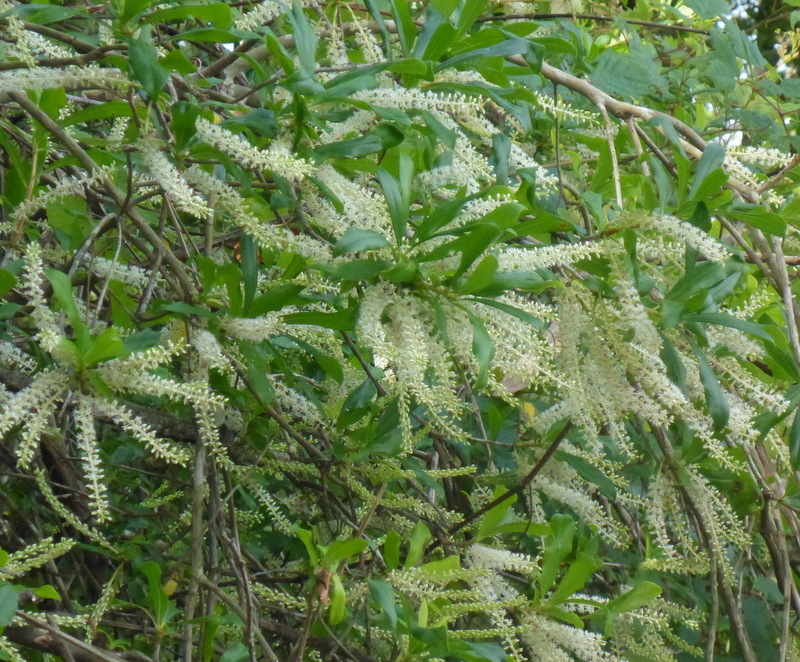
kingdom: Plantae
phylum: Tracheophyta
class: Magnoliopsida
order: Ericales
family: Cyrillaceae
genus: Cyrilla
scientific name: Cyrilla racemiflora
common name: Black titi
